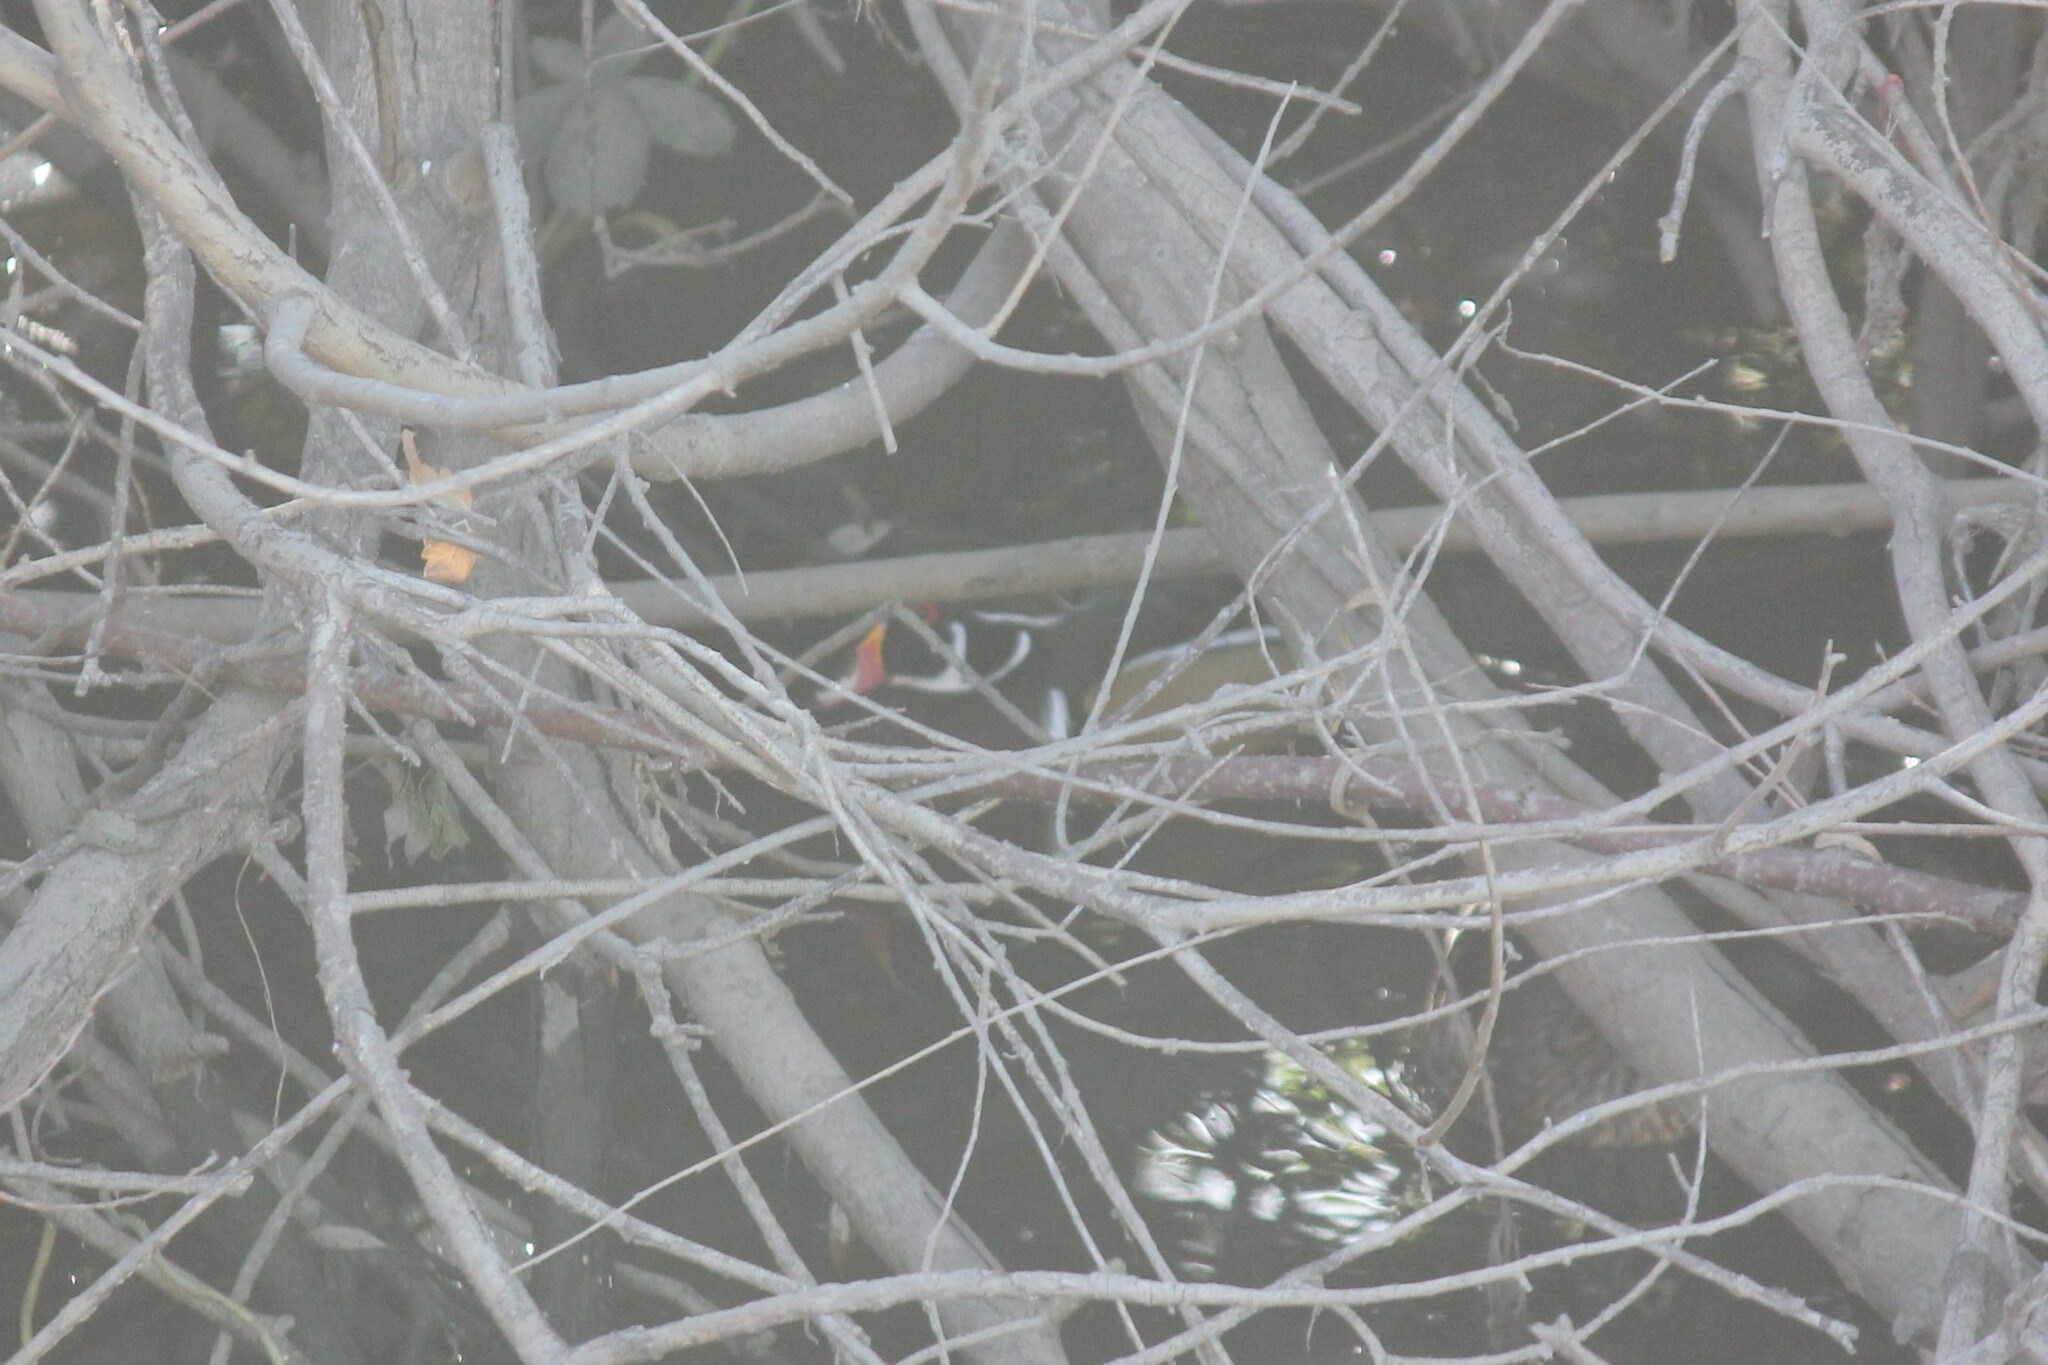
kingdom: Animalia
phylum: Chordata
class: Aves
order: Anseriformes
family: Anatidae
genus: Aix
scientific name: Aix sponsa
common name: Wood duck
